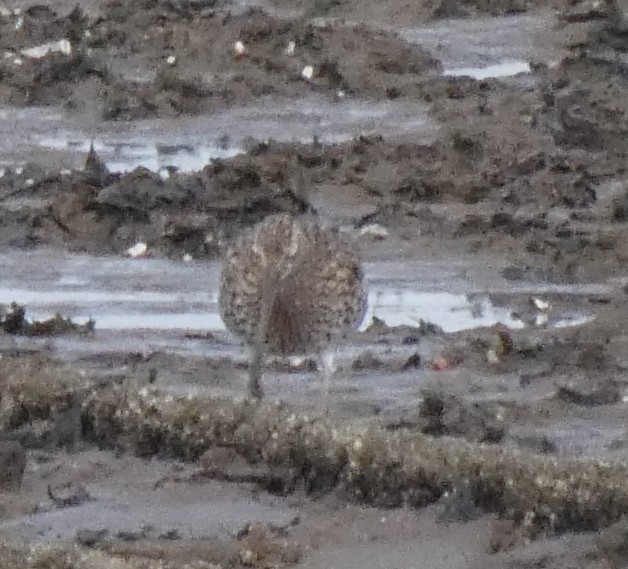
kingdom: Animalia
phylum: Chordata
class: Aves
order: Charadriiformes
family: Scolopacidae
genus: Numenius
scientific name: Numenius arquata
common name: Eurasian curlew
